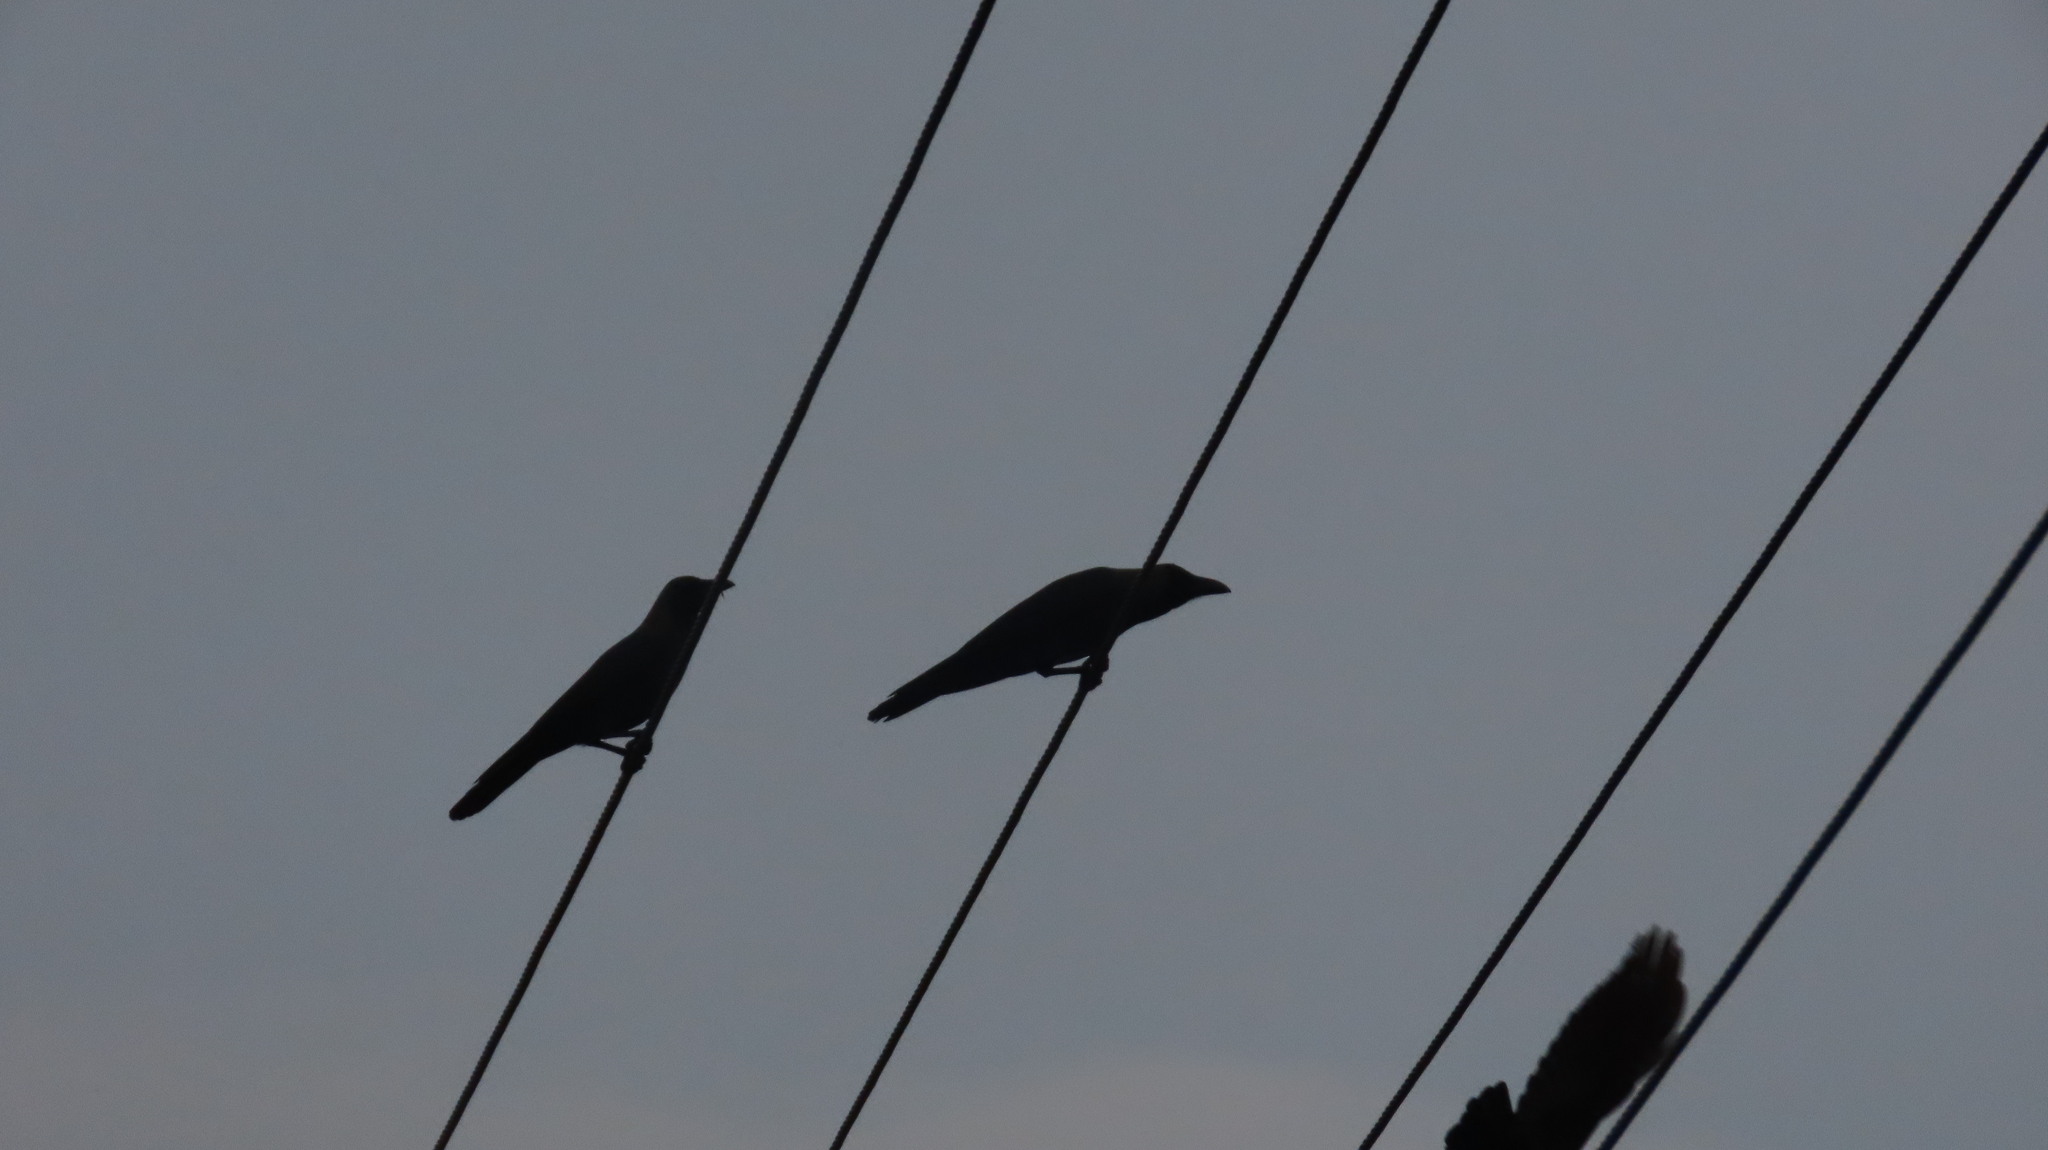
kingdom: Animalia
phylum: Chordata
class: Aves
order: Passeriformes
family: Corvidae
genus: Corvus
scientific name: Corvus splendens
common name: House crow
